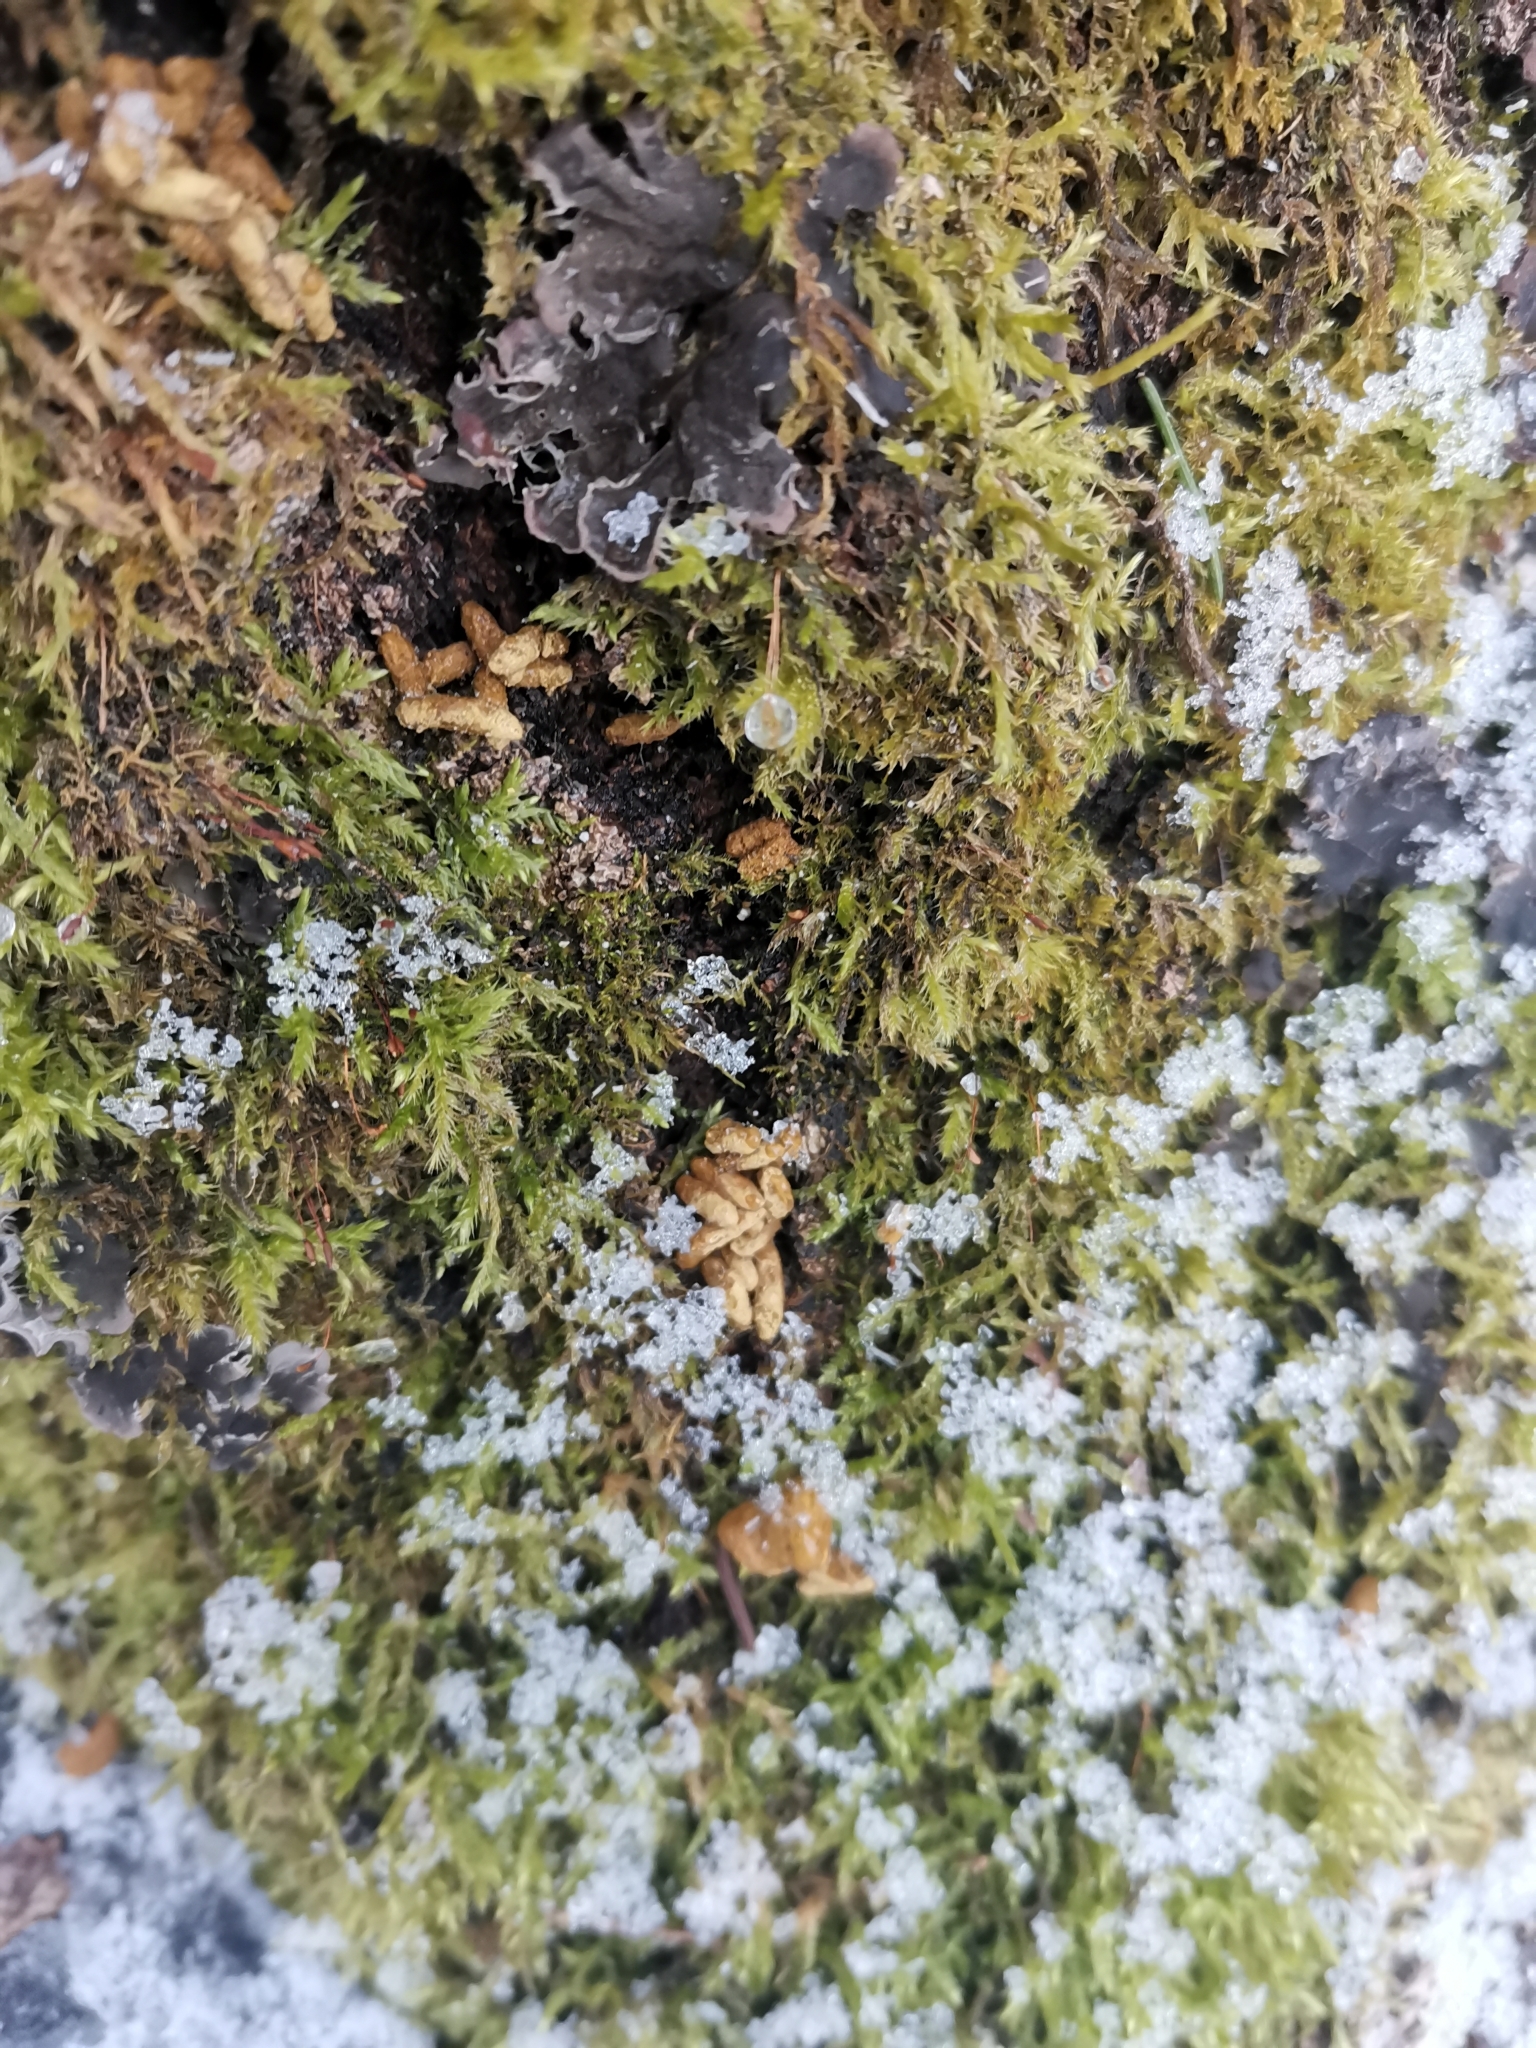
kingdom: Animalia
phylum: Chordata
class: Mammalia
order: Rodentia
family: Sciuridae
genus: Pteromys
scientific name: Pteromys volans
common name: Siberian flying squirrel
